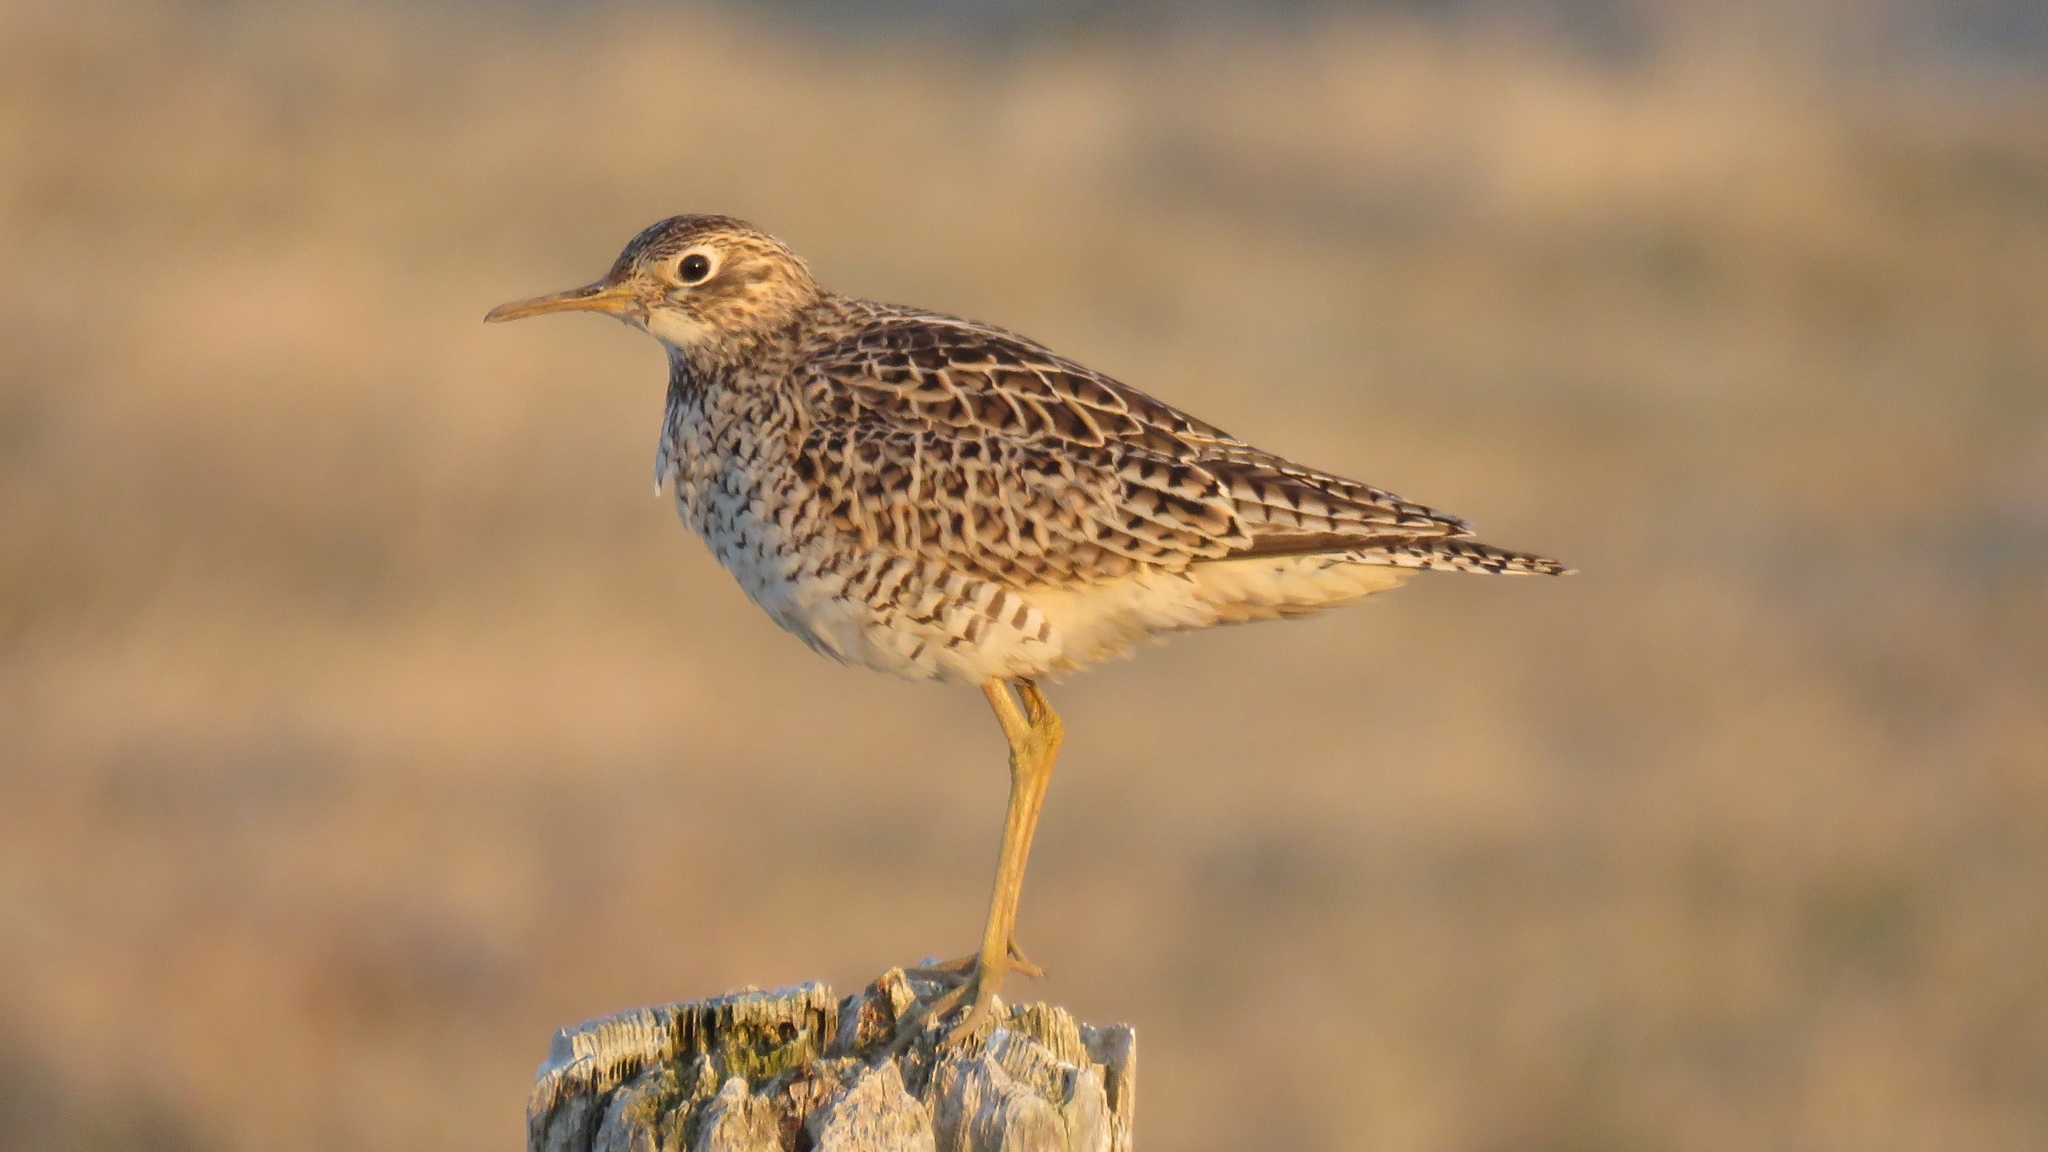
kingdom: Animalia
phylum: Chordata
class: Aves
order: Charadriiformes
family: Scolopacidae
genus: Bartramia
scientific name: Bartramia longicauda
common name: Upland sandpiper
